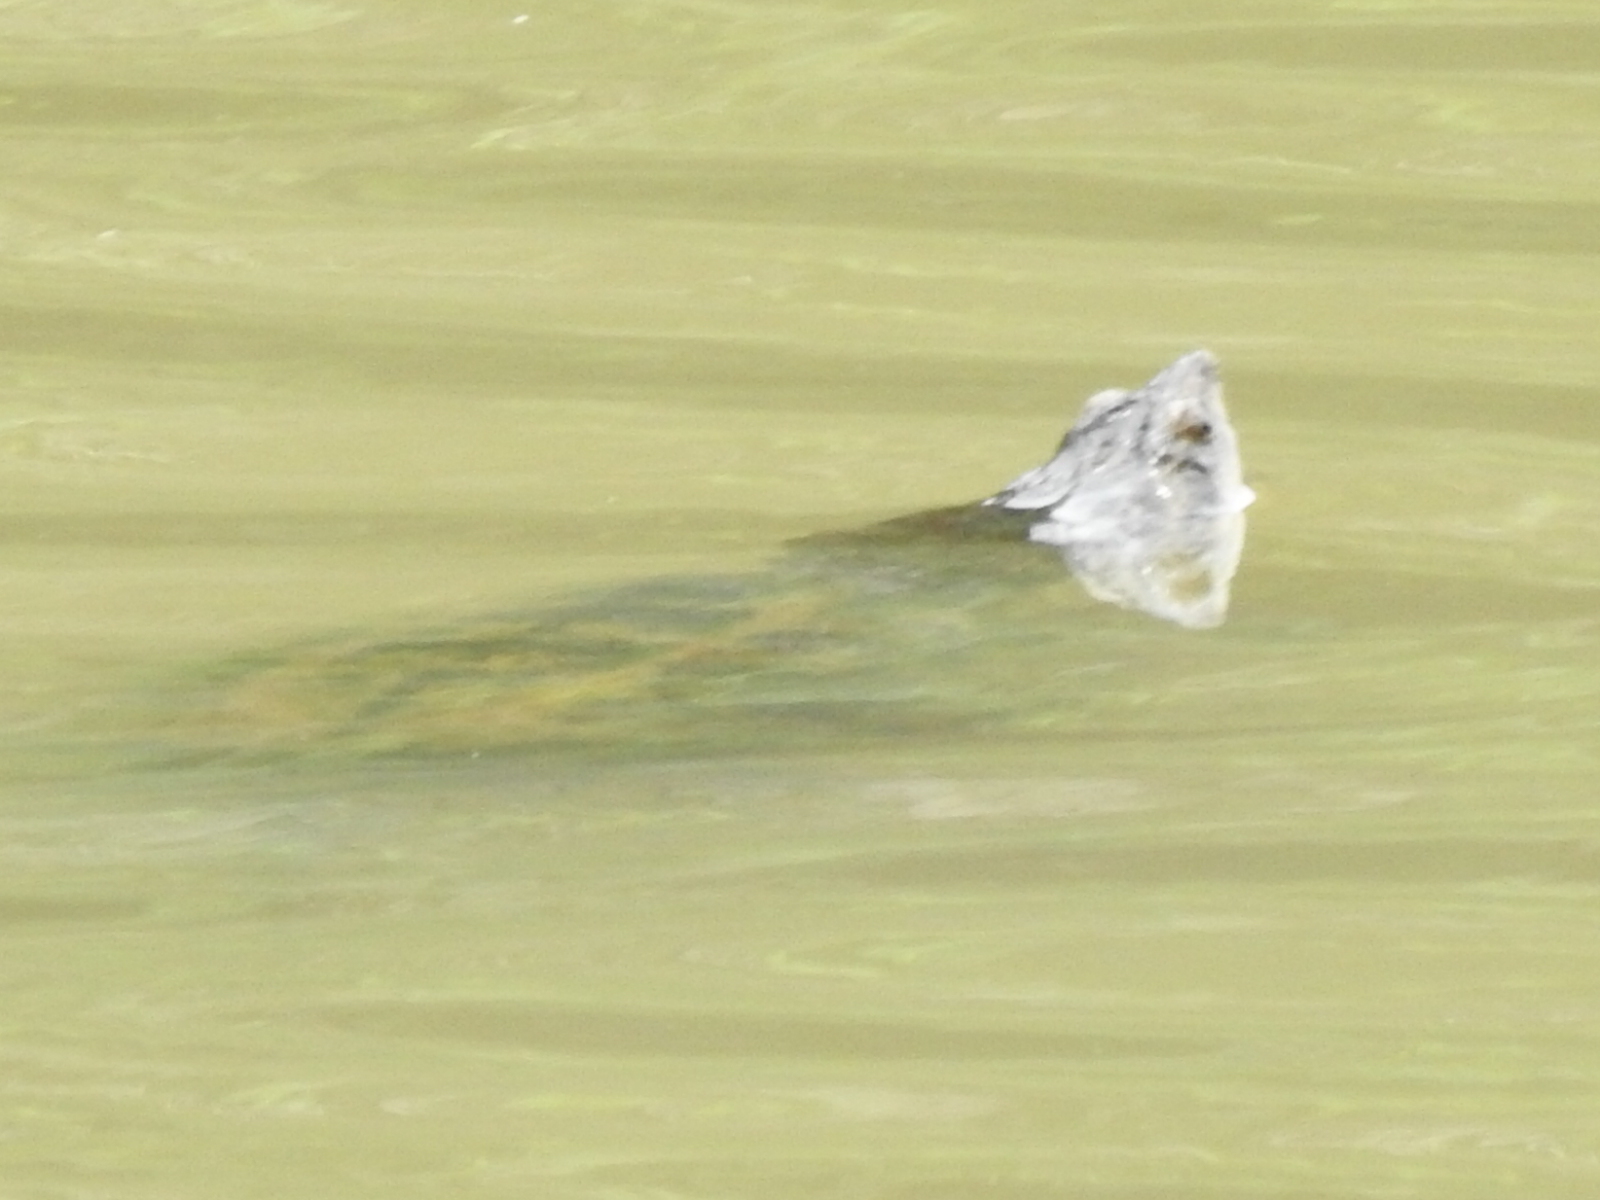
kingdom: Animalia
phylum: Chordata
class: Testudines
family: Chelydridae
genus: Chelydra
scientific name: Chelydra serpentina
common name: Common snapping turtle
